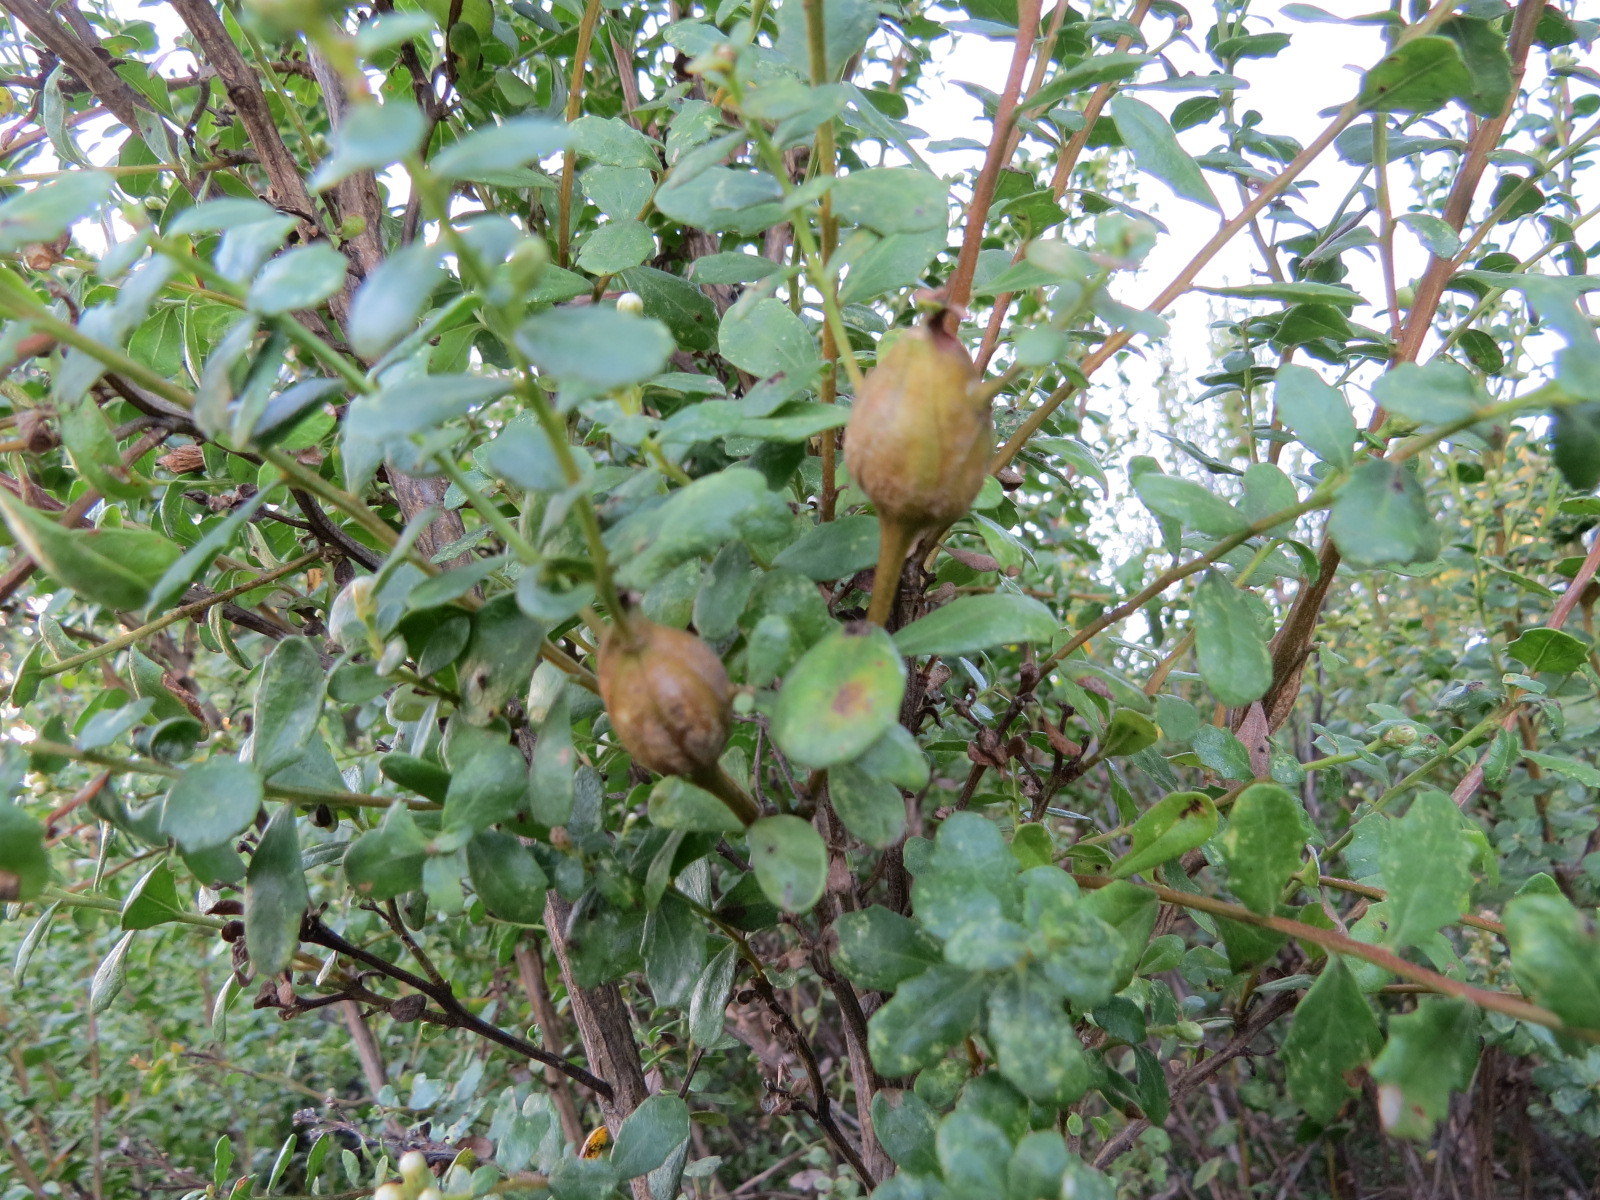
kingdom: Animalia
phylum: Arthropoda
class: Insecta
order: Lepidoptera
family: Gelechiidae
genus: Gnorimoschema
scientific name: Gnorimoschema baccharisella
